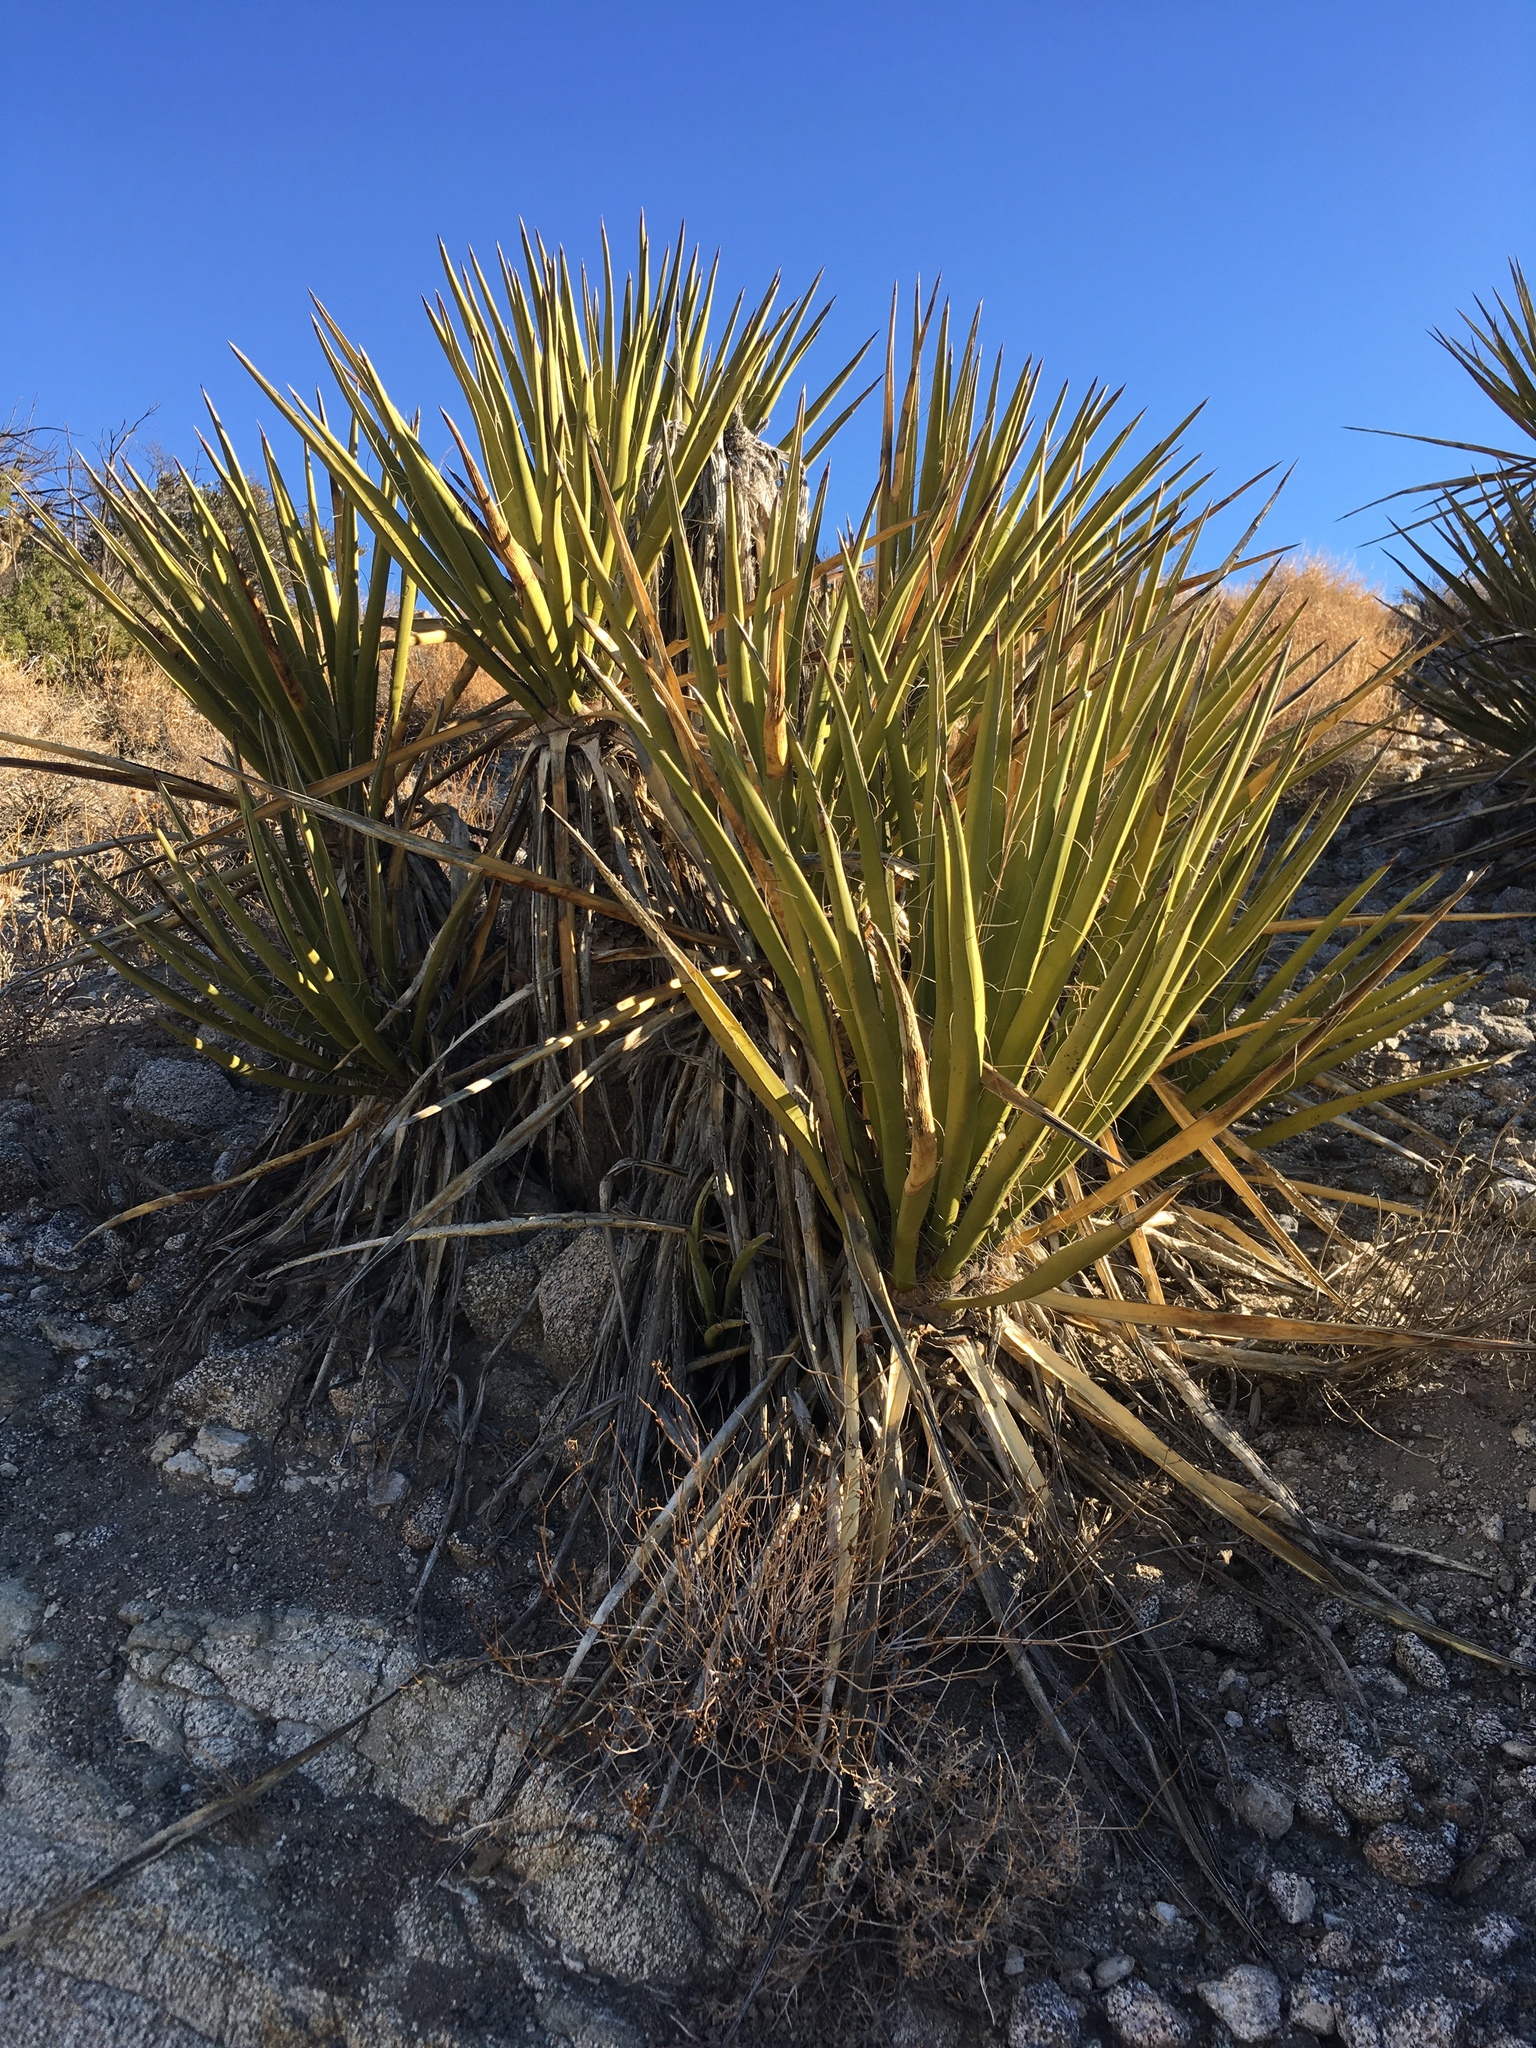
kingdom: Plantae
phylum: Tracheophyta
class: Liliopsida
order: Asparagales
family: Asparagaceae
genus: Yucca
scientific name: Yucca schidigera
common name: Mojave yucca
